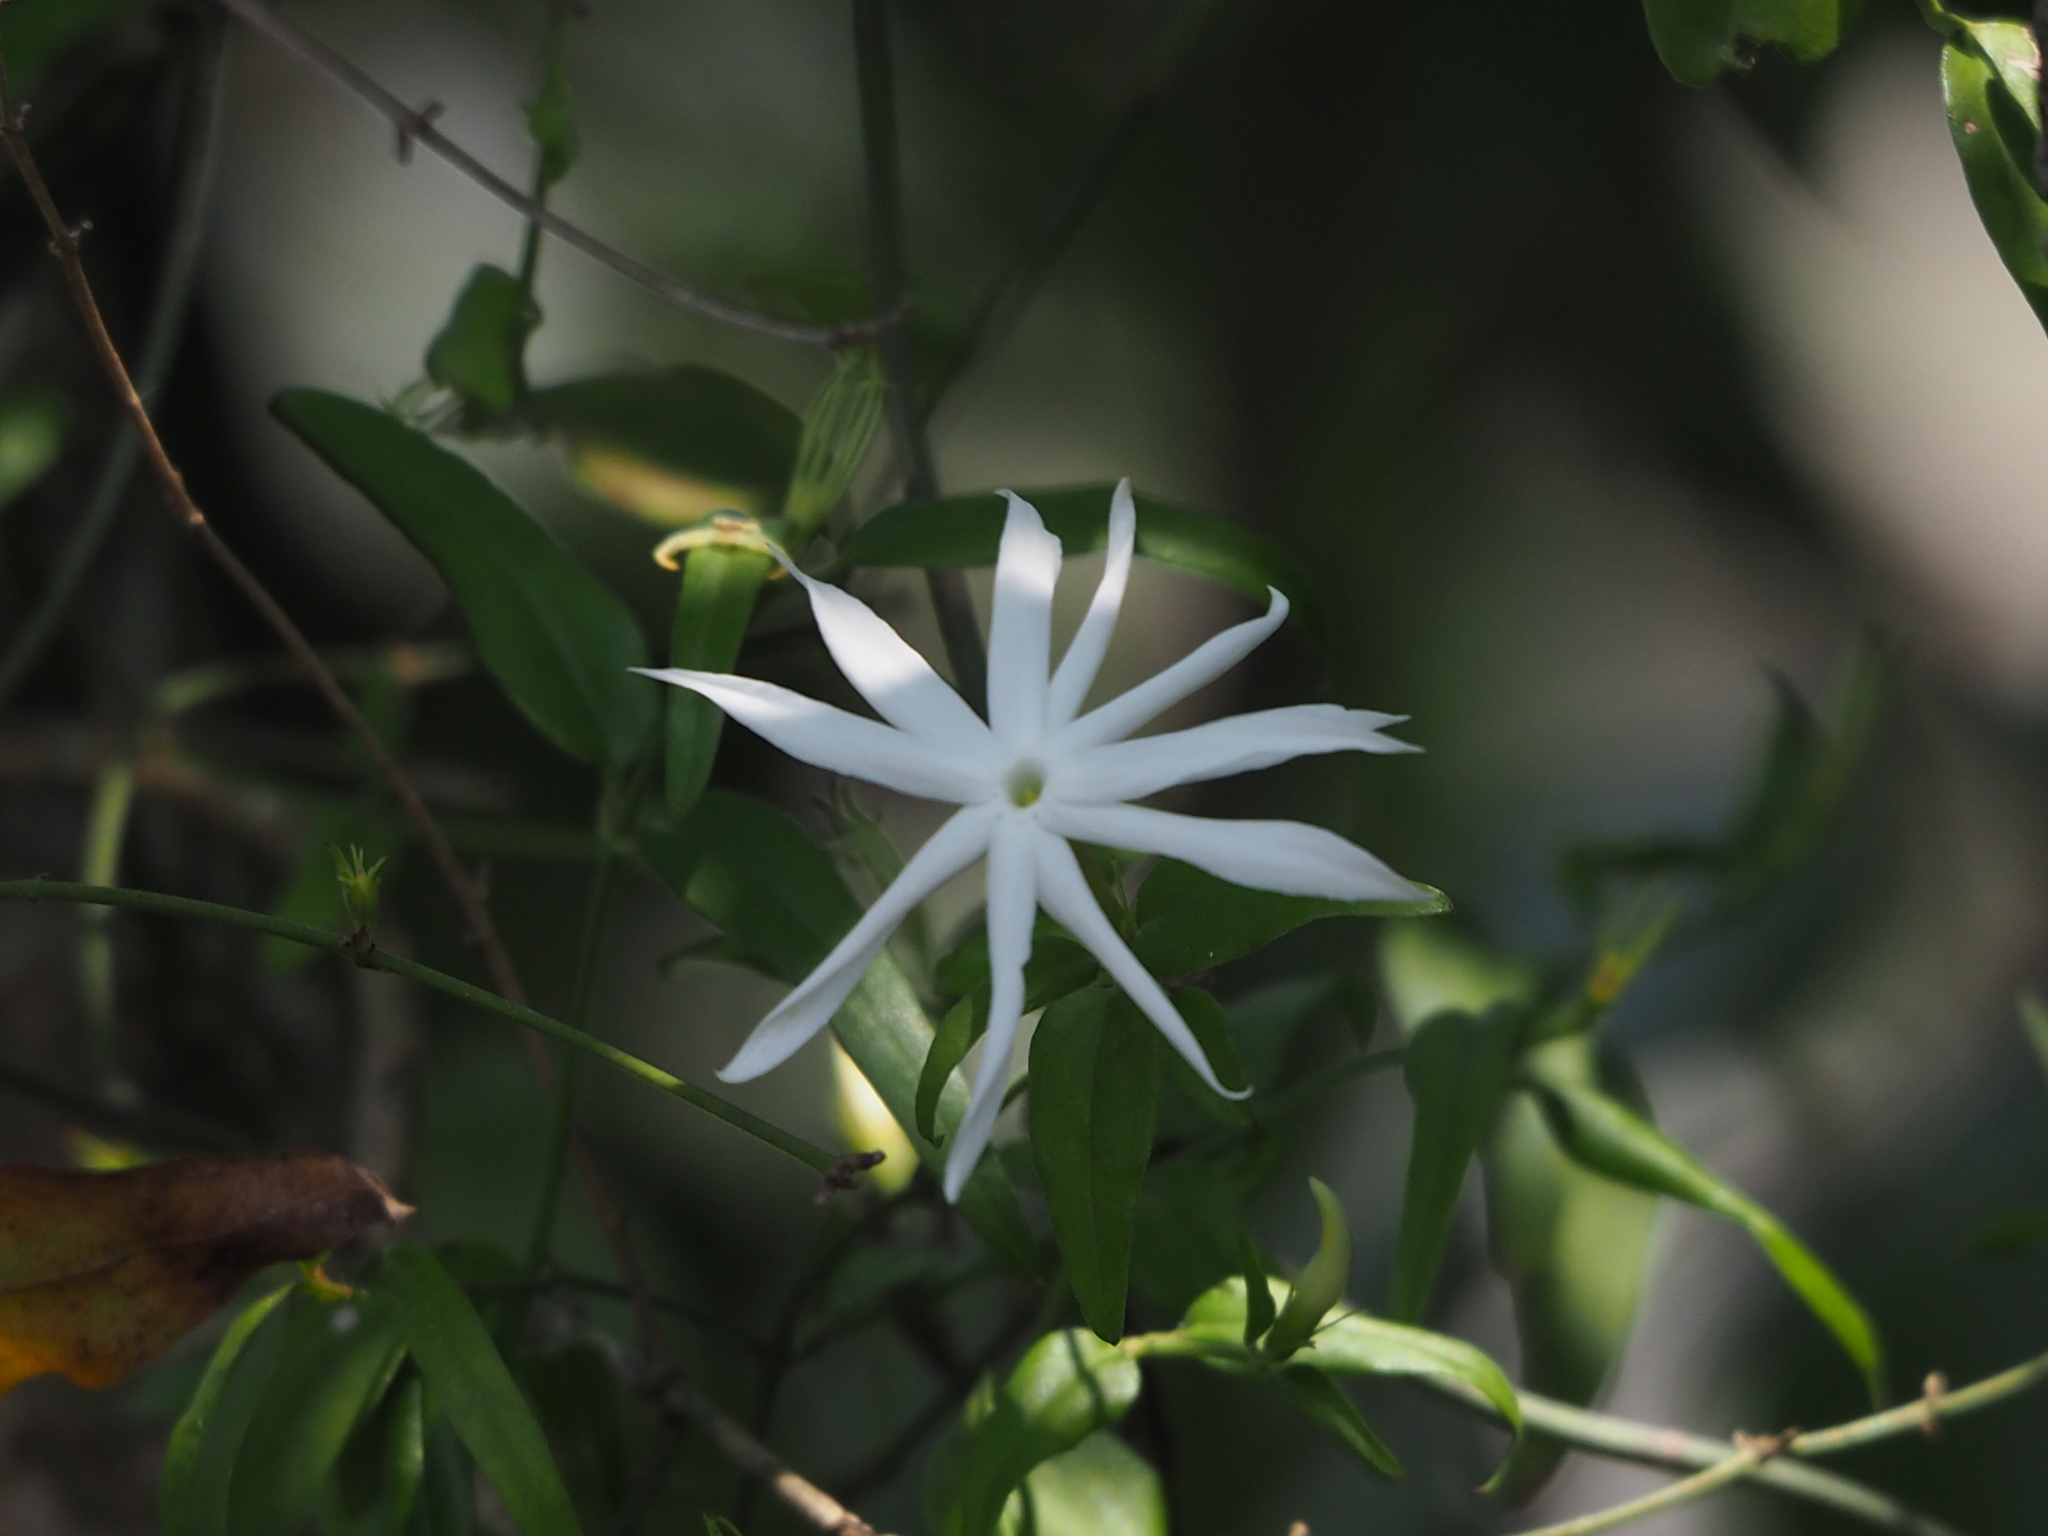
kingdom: Plantae
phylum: Tracheophyta
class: Magnoliopsida
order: Lamiales
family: Oleaceae
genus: Jasminum
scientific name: Jasminum nervosum
